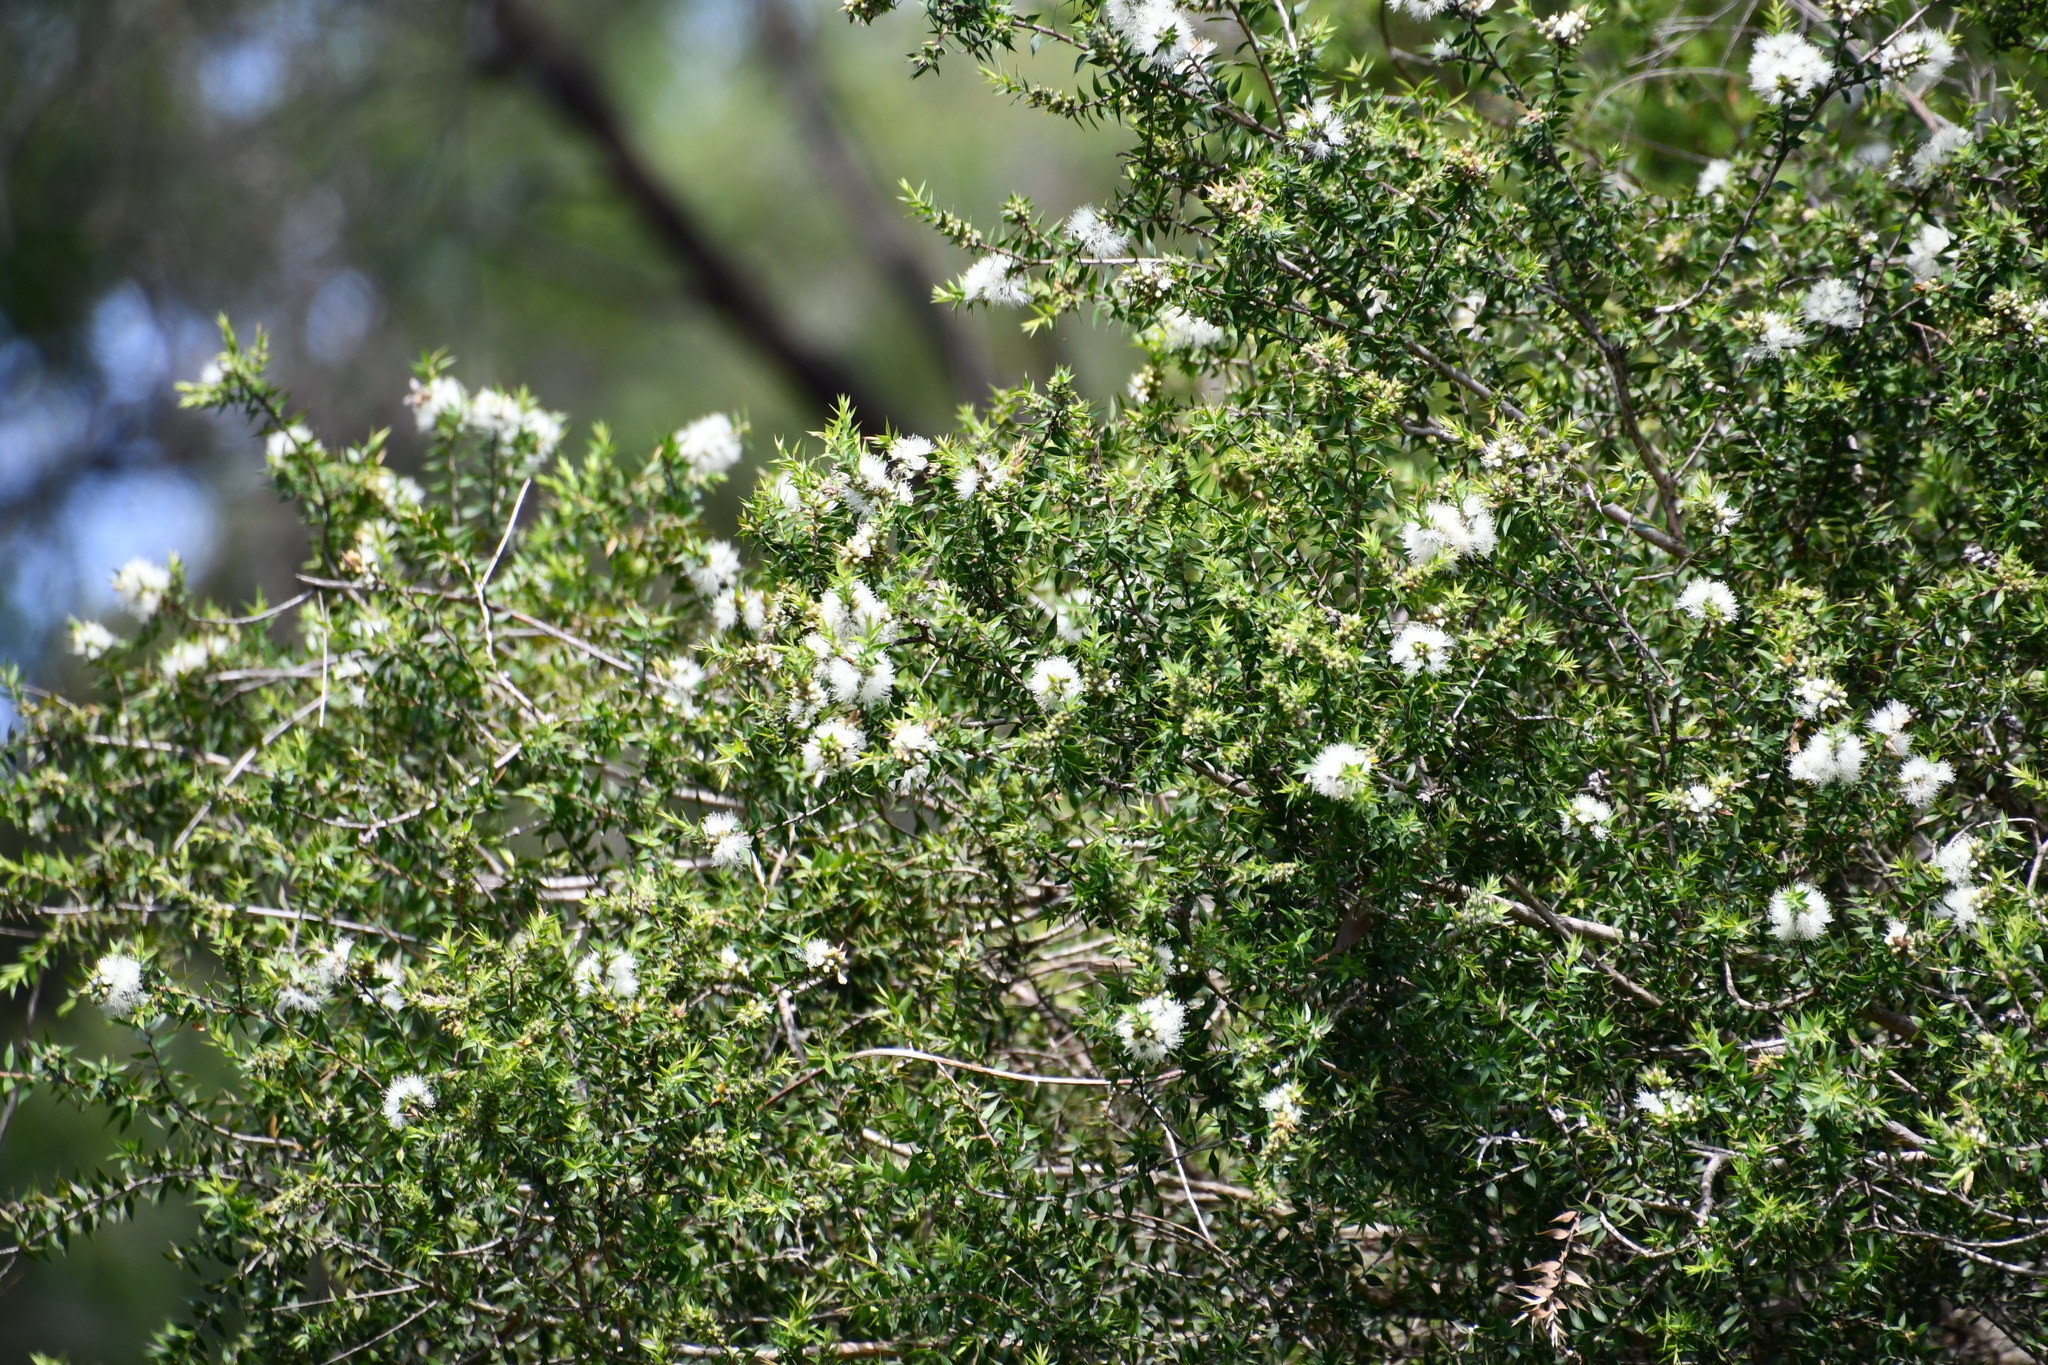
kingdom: Plantae
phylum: Tracheophyta
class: Magnoliopsida
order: Myrtales
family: Myrtaceae
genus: Melaleuca
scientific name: Melaleuca styphelioides
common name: Prickly paperbark
